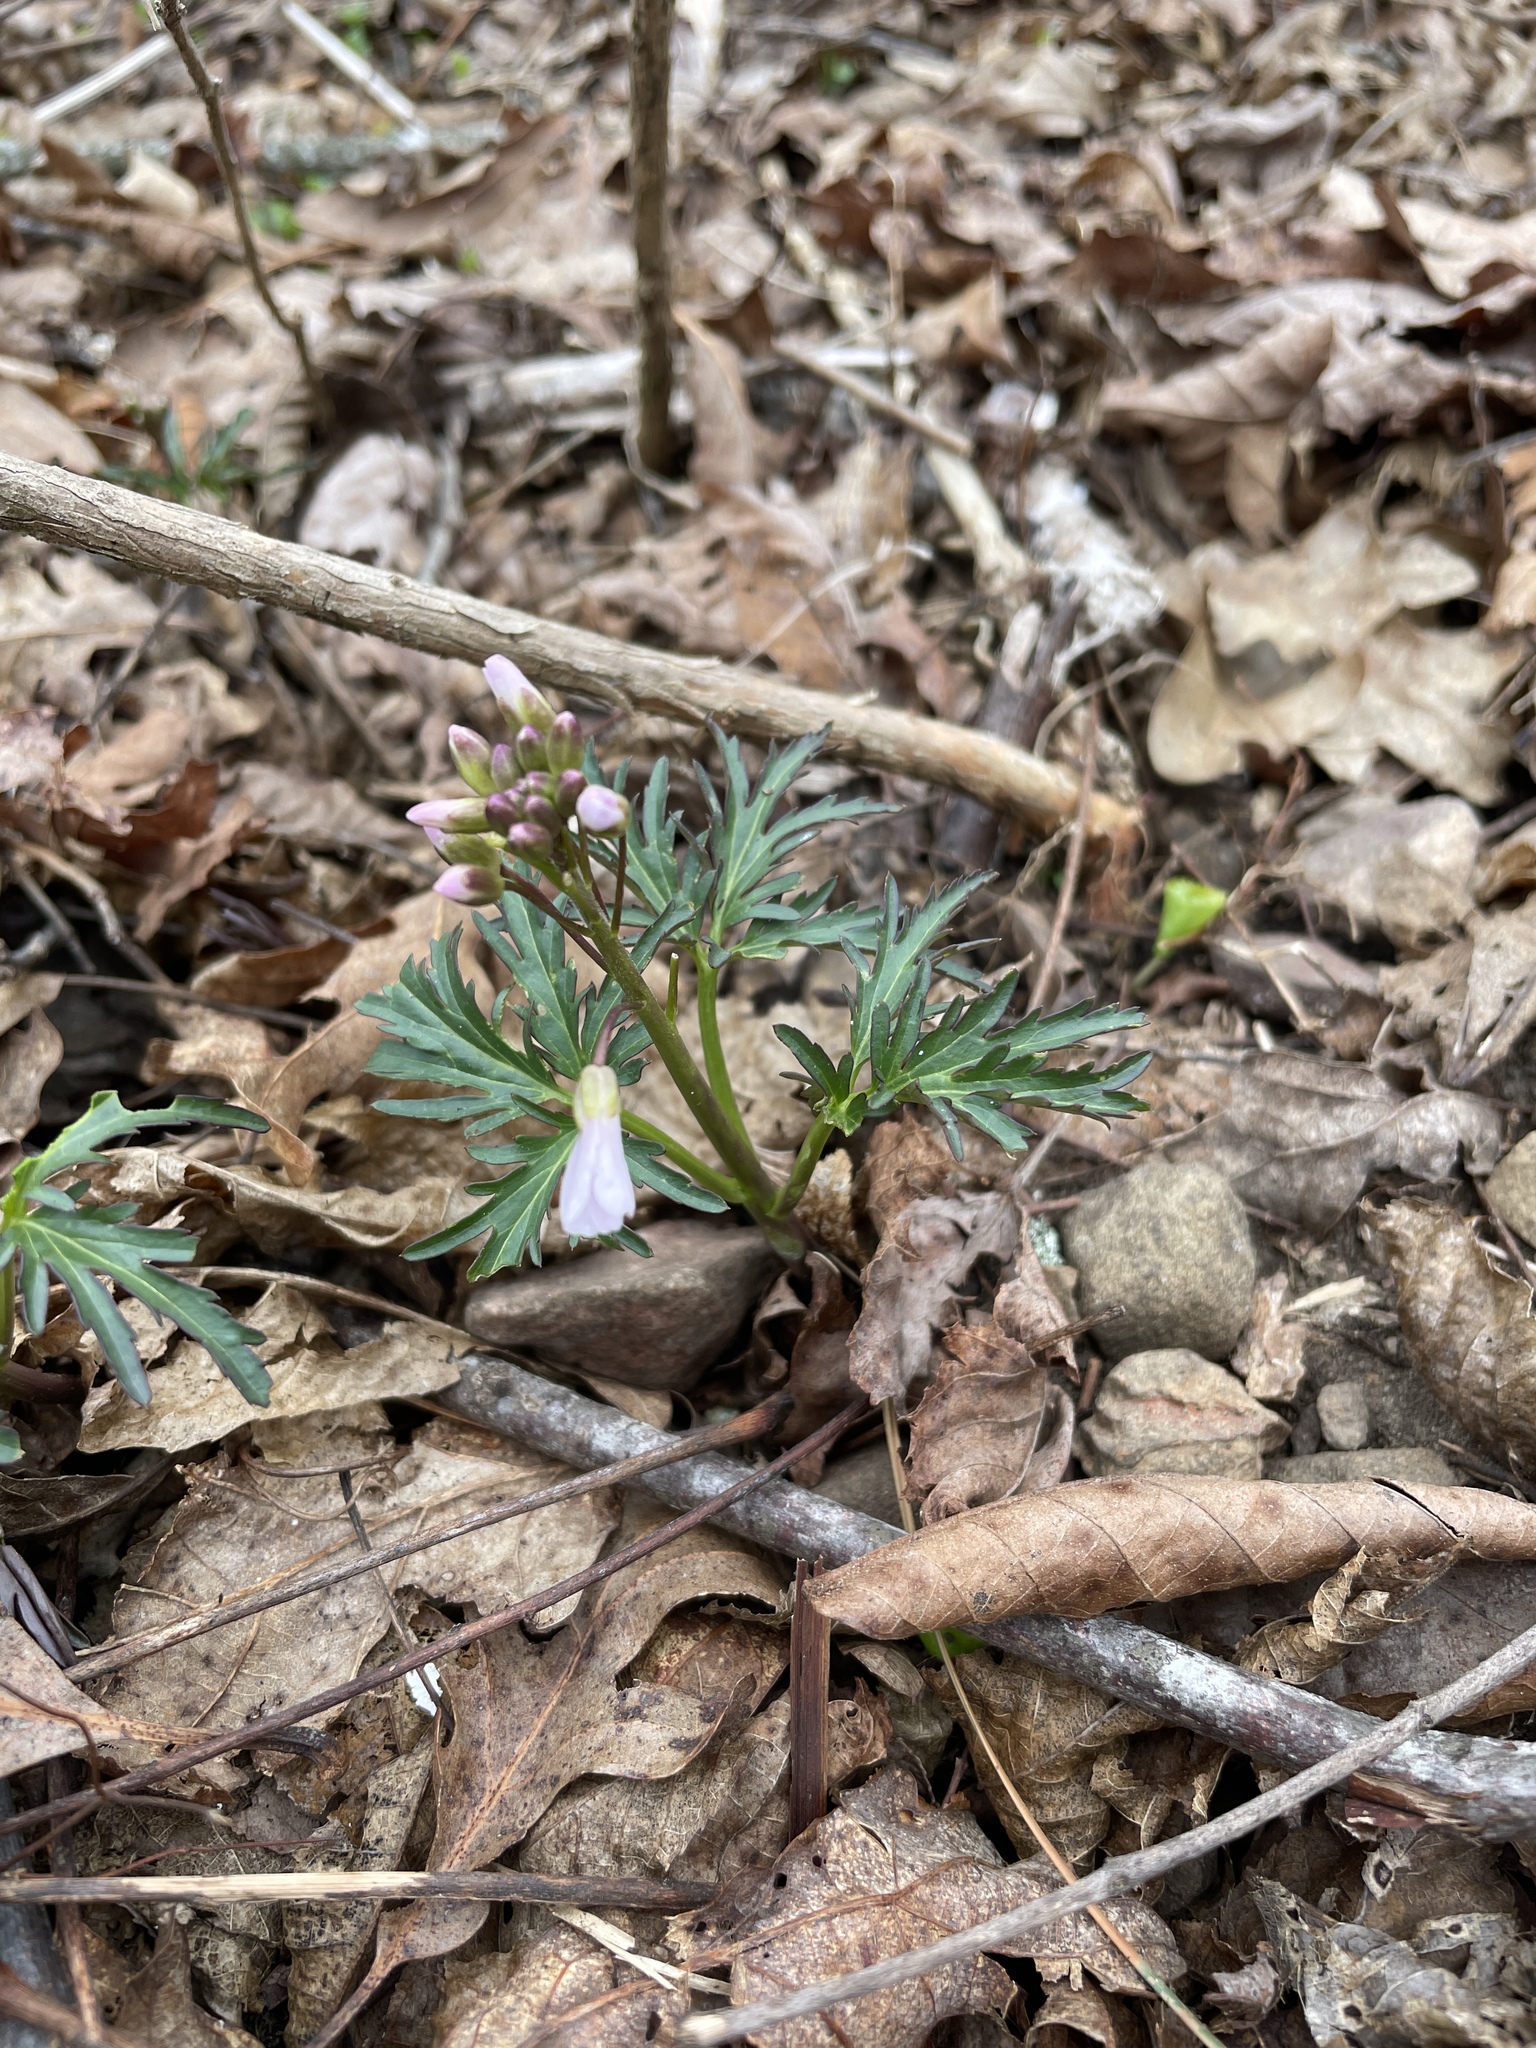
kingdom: Plantae
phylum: Tracheophyta
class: Magnoliopsida
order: Brassicales
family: Brassicaceae
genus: Cardamine
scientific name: Cardamine concatenata
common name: Cut-leaf toothcup
